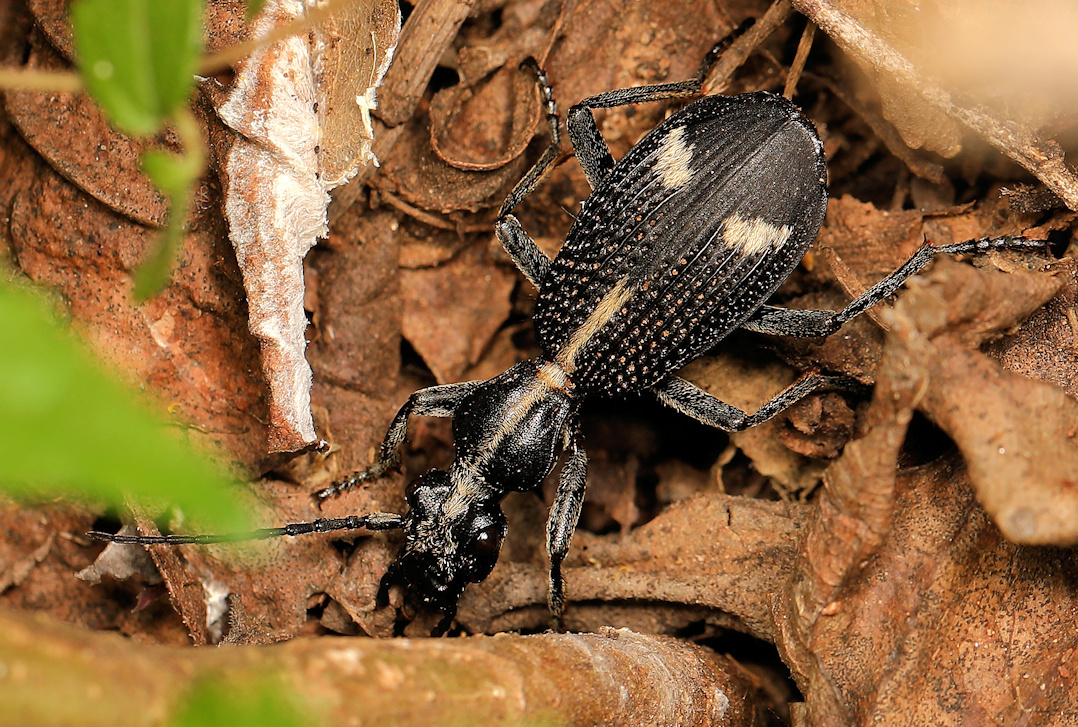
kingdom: Animalia
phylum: Arthropoda
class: Insecta
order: Coleoptera
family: Carabidae
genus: Cypholoba
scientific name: Cypholoba graphipteroides
